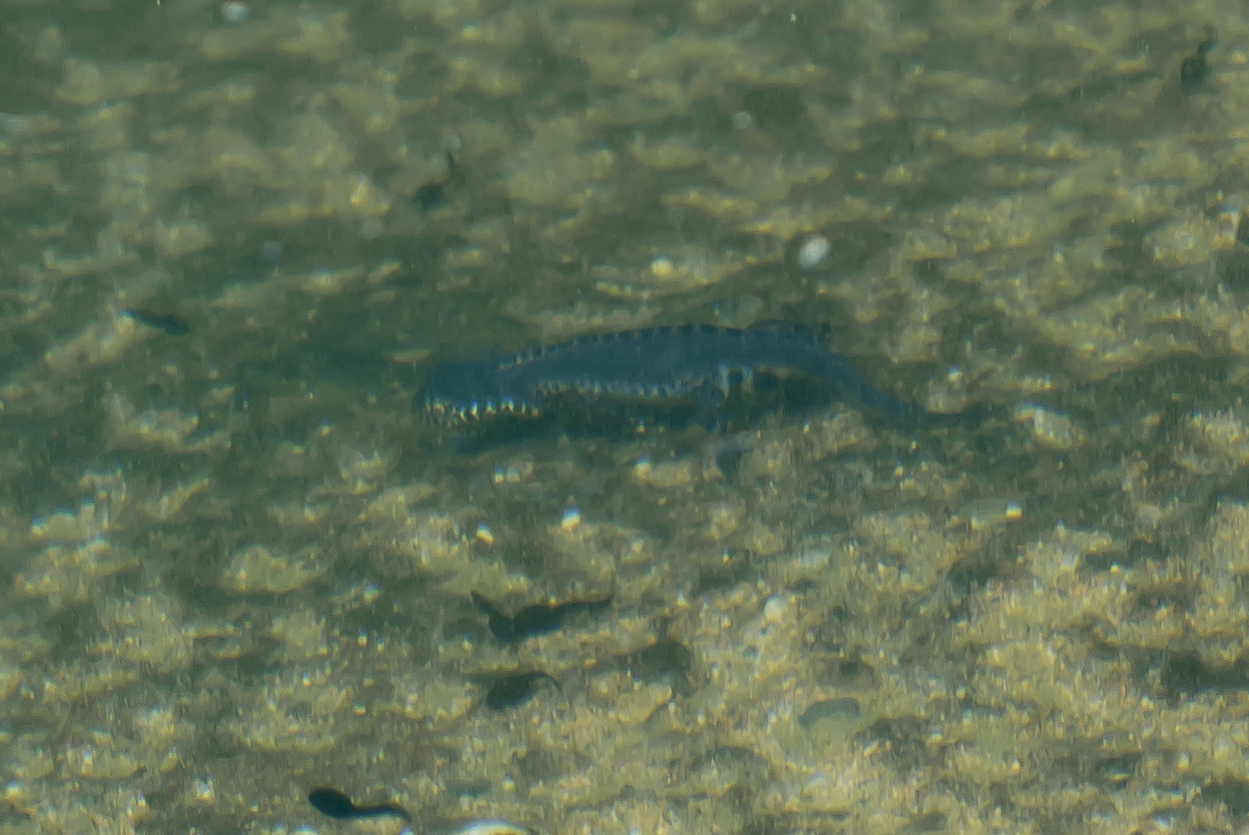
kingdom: Animalia
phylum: Chordata
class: Amphibia
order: Caudata
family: Salamandridae
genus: Ichthyosaura
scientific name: Ichthyosaura alpestris
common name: Alpine newt
